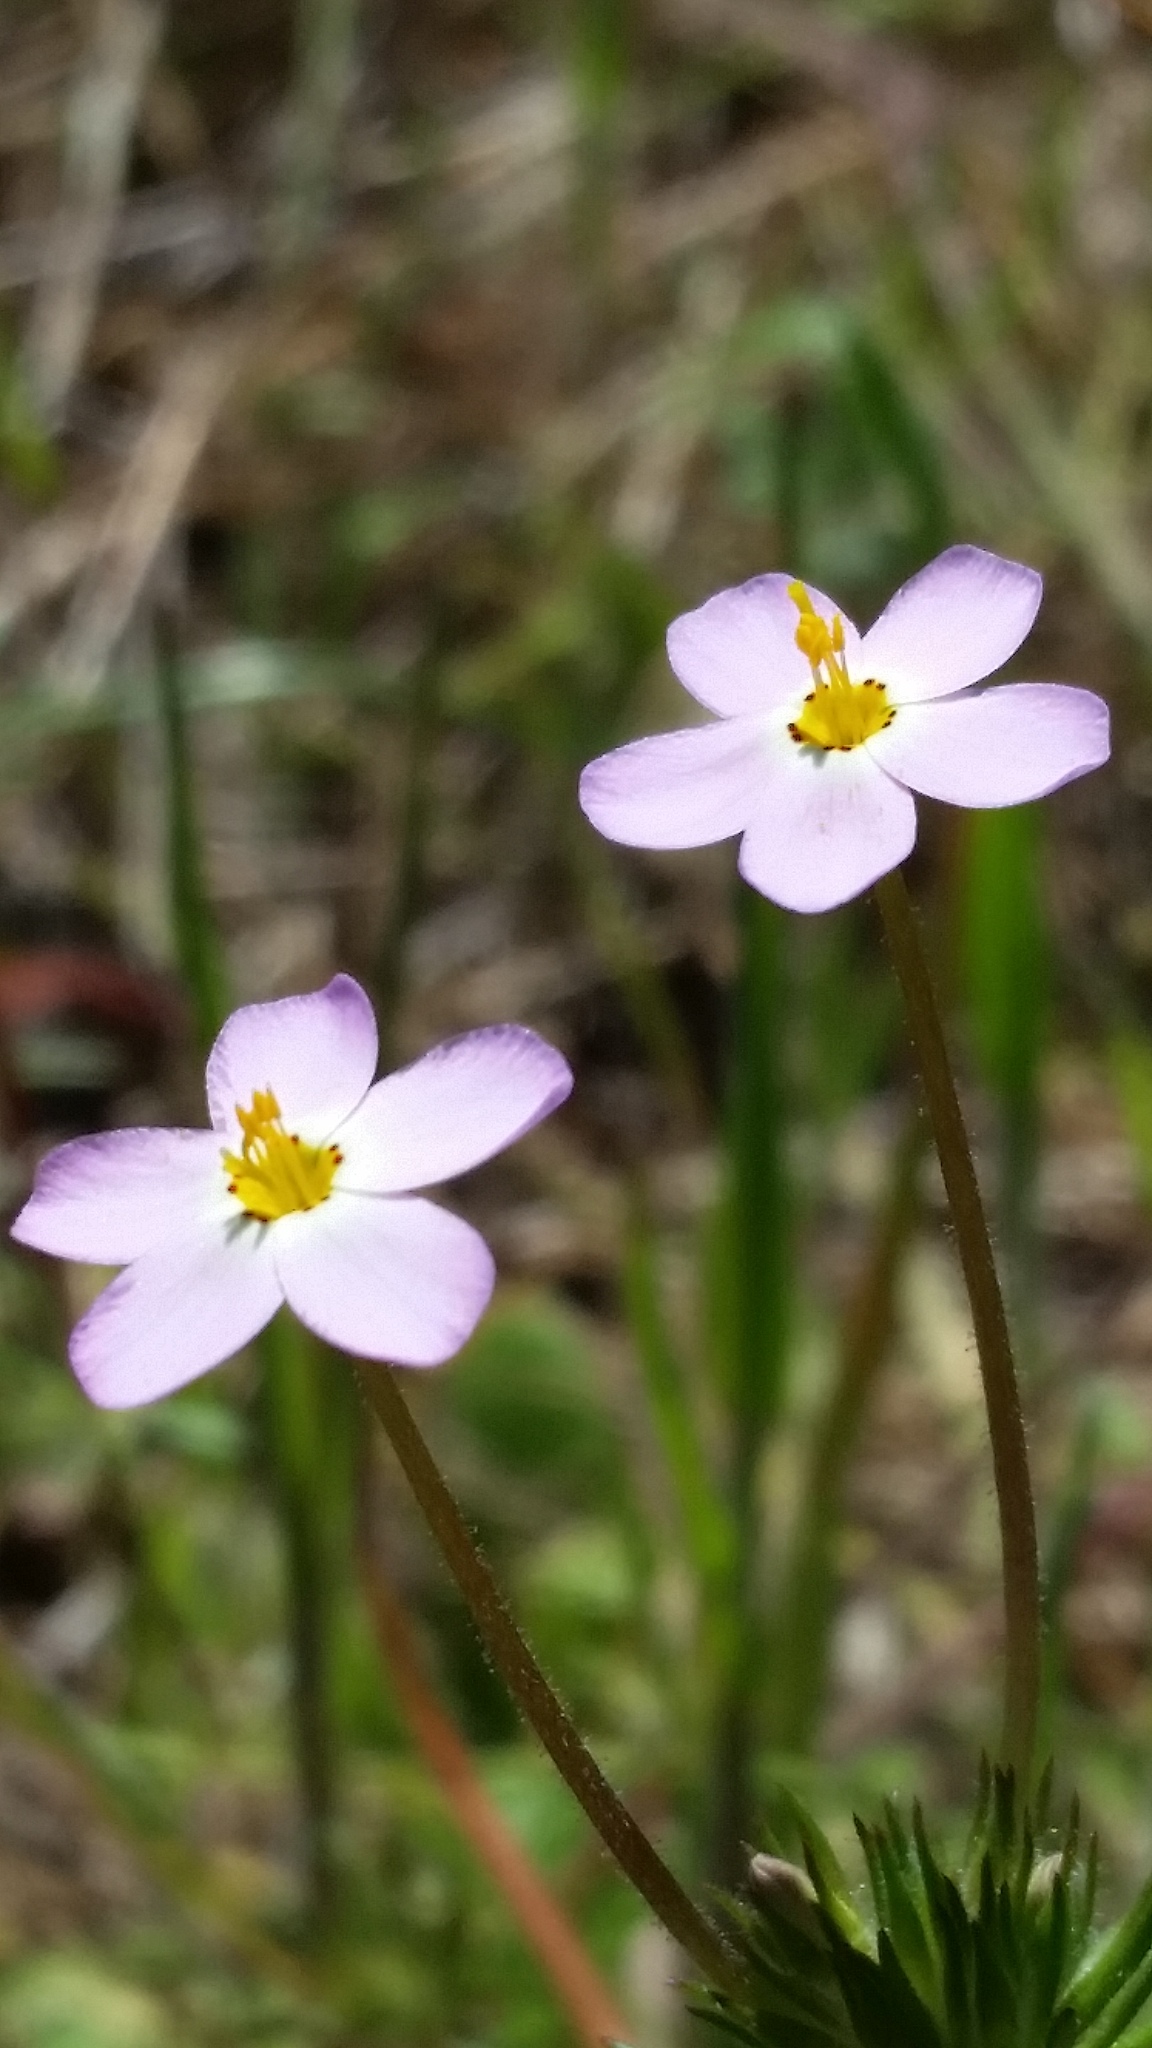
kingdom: Plantae
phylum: Tracheophyta
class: Magnoliopsida
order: Ericales
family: Polemoniaceae
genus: Leptosiphon
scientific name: Leptosiphon jepsonii
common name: Jepson's linanthus
